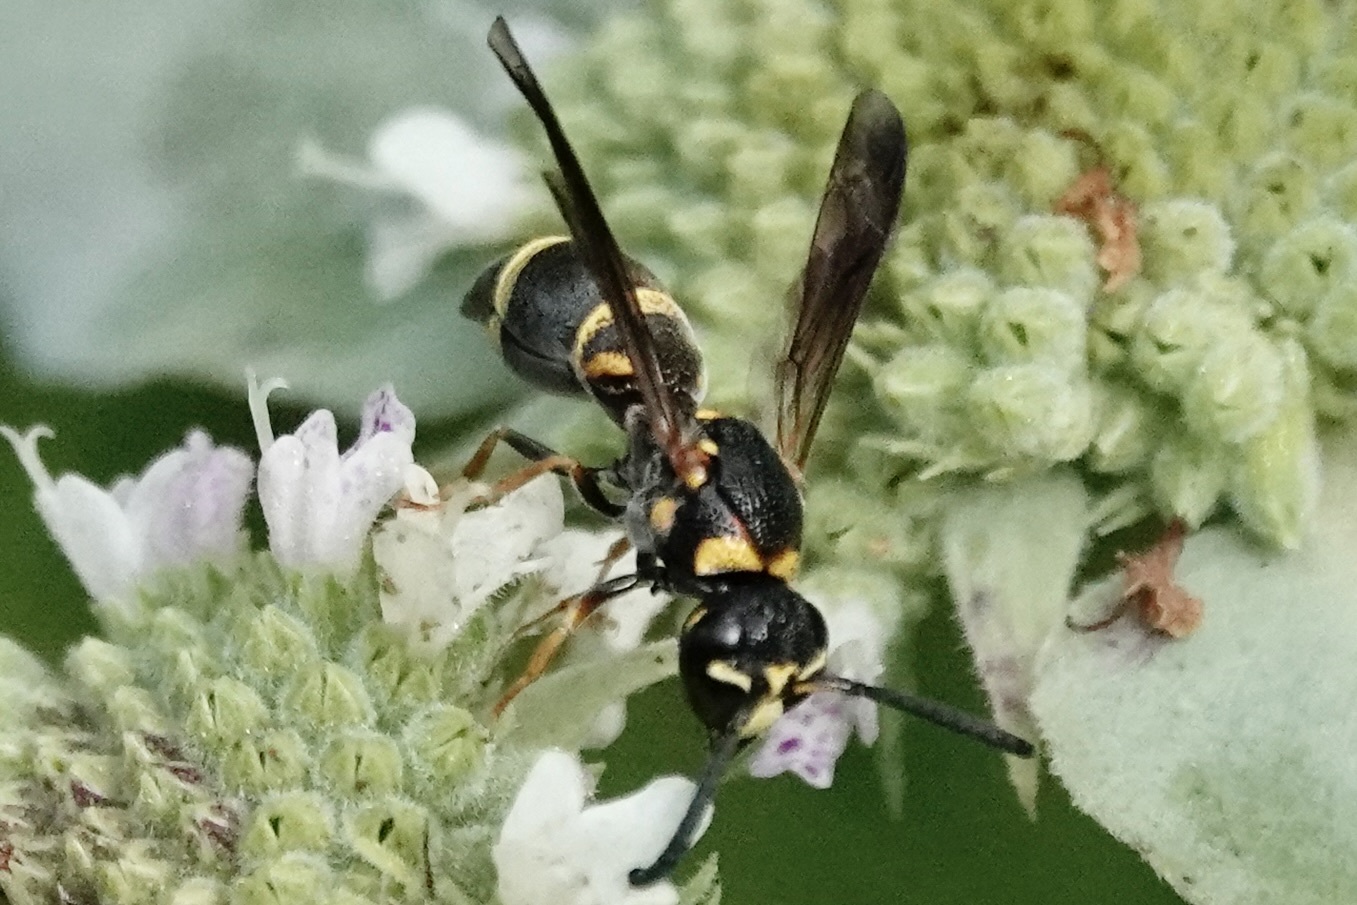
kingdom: Animalia
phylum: Arthropoda
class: Insecta
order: Hymenoptera
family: Eumenidae
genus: Parancistrocerus
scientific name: Parancistrocerus fulvipes
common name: Potter wasp
